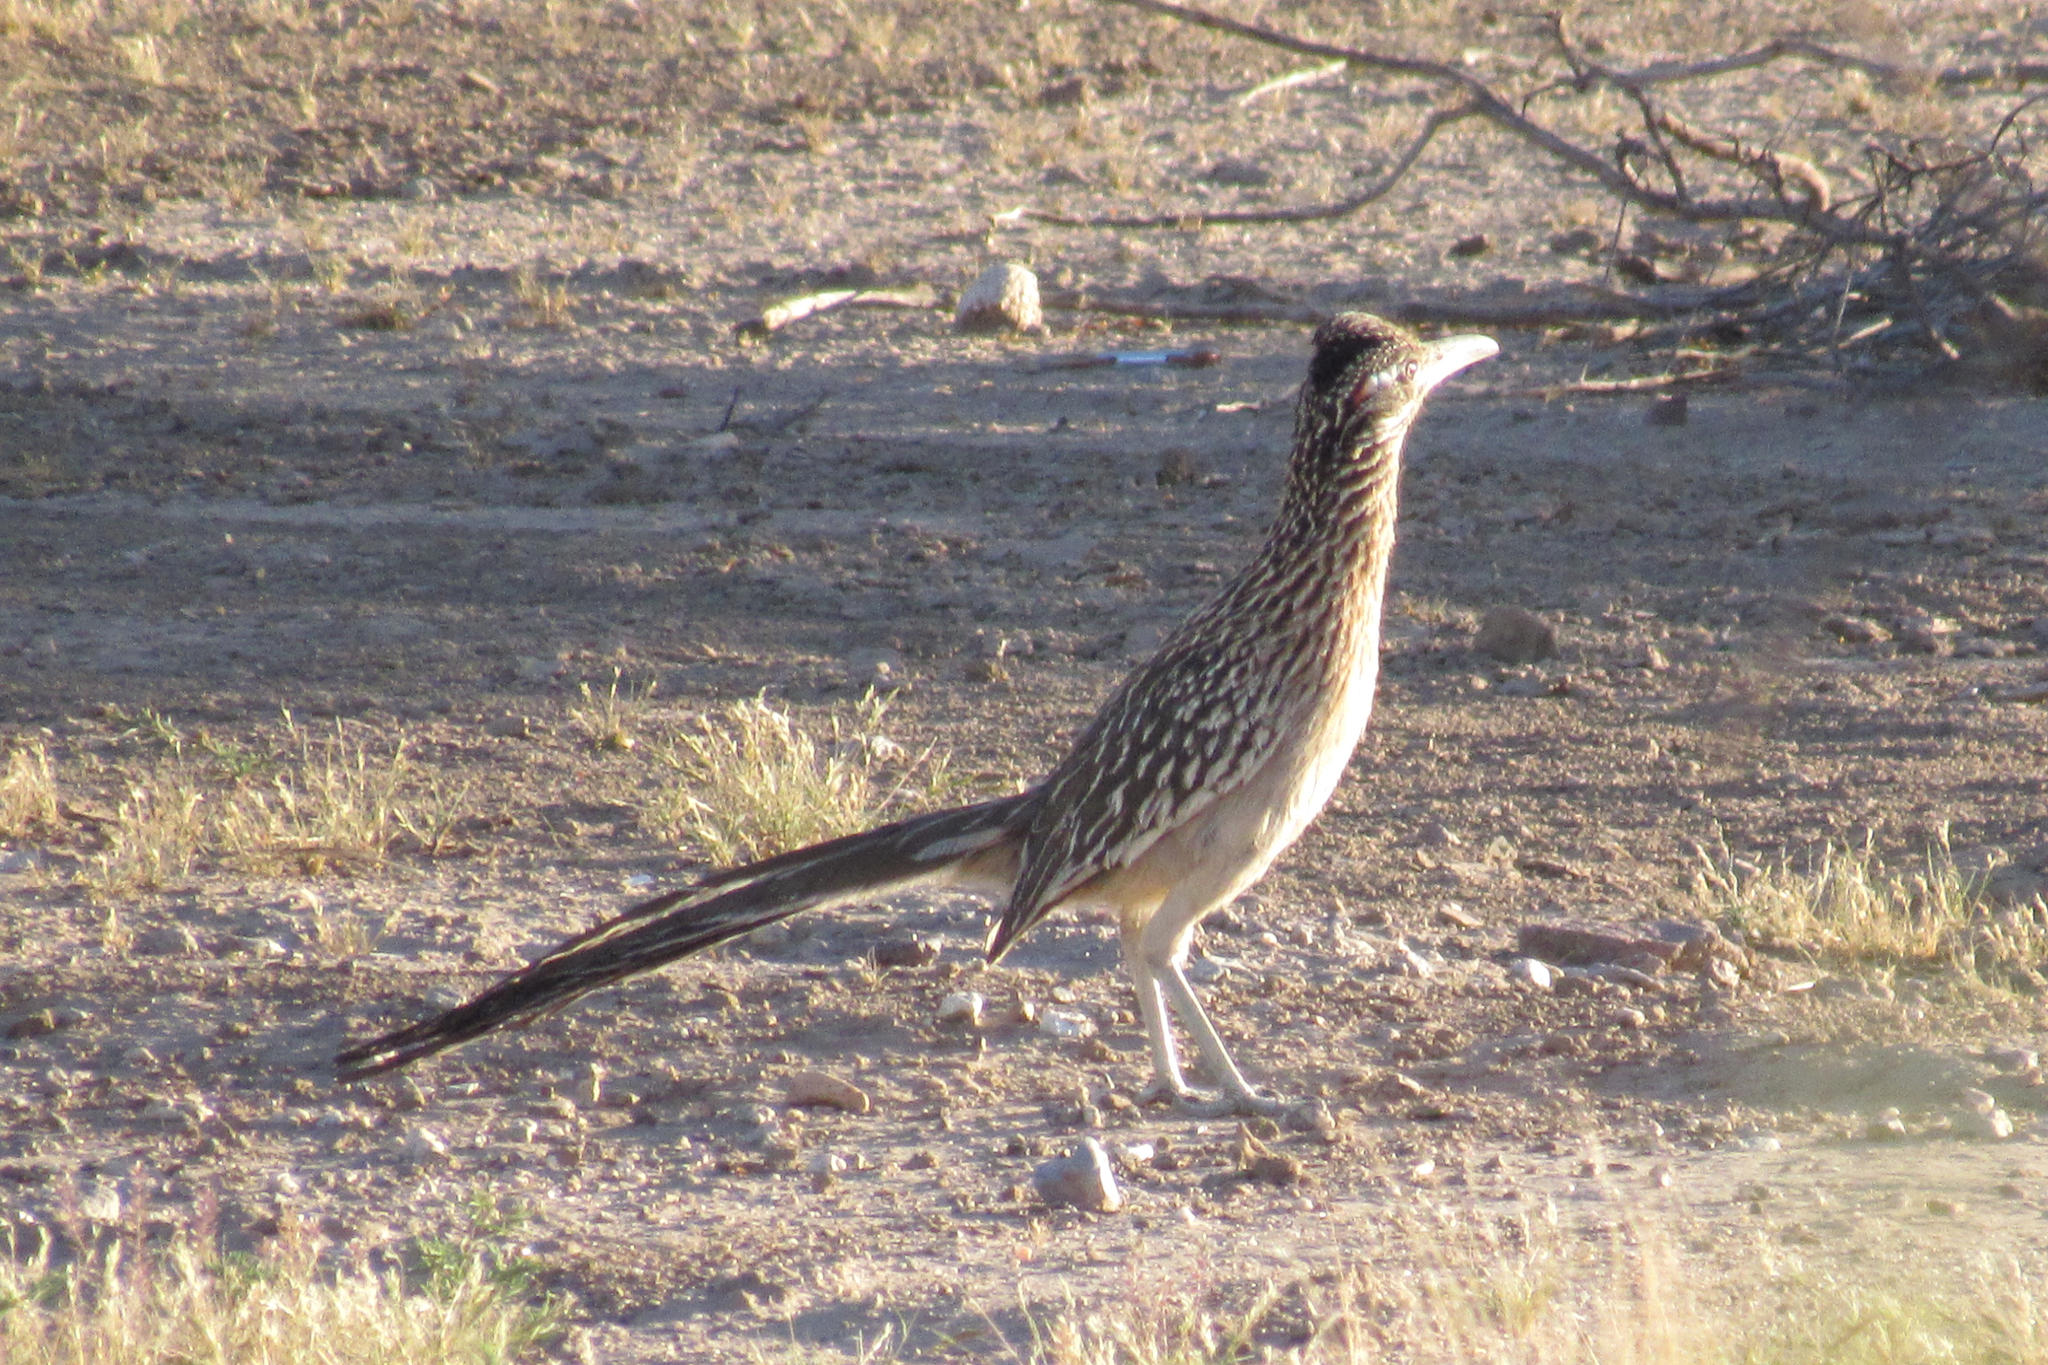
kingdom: Animalia
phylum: Chordata
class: Aves
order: Cuculiformes
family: Cuculidae
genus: Geococcyx
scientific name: Geococcyx californianus
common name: Greater roadrunner
